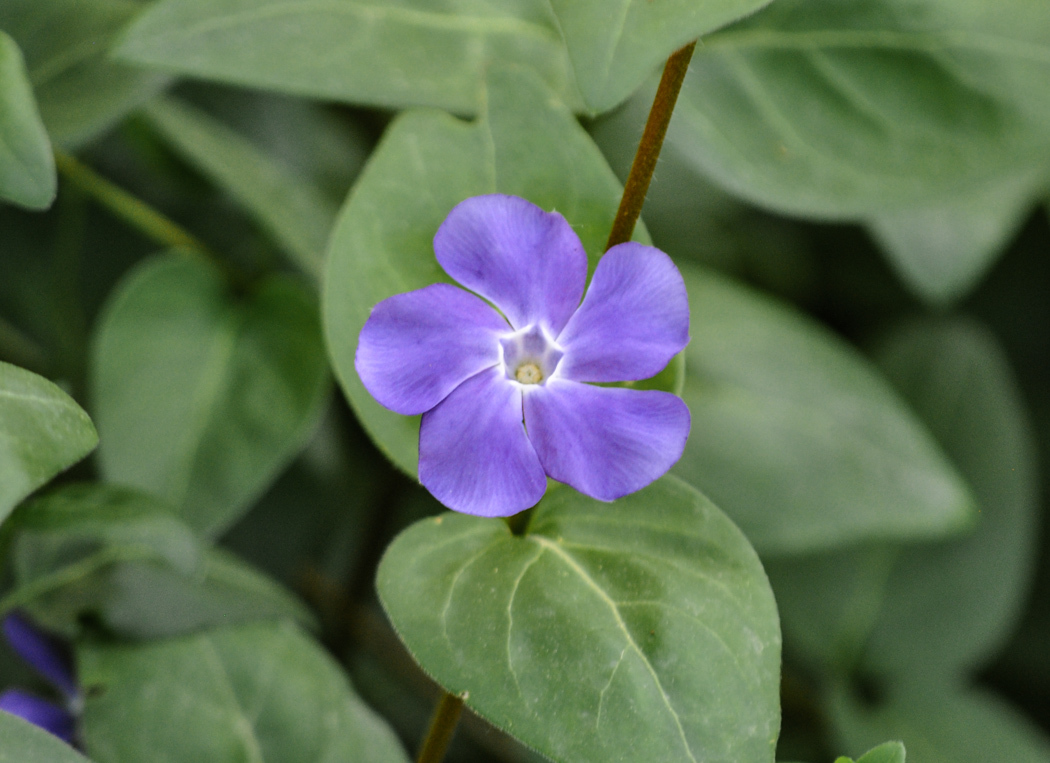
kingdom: Plantae
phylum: Tracheophyta
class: Magnoliopsida
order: Gentianales
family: Apocynaceae
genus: Vinca
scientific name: Vinca major
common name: Greater periwinkle
